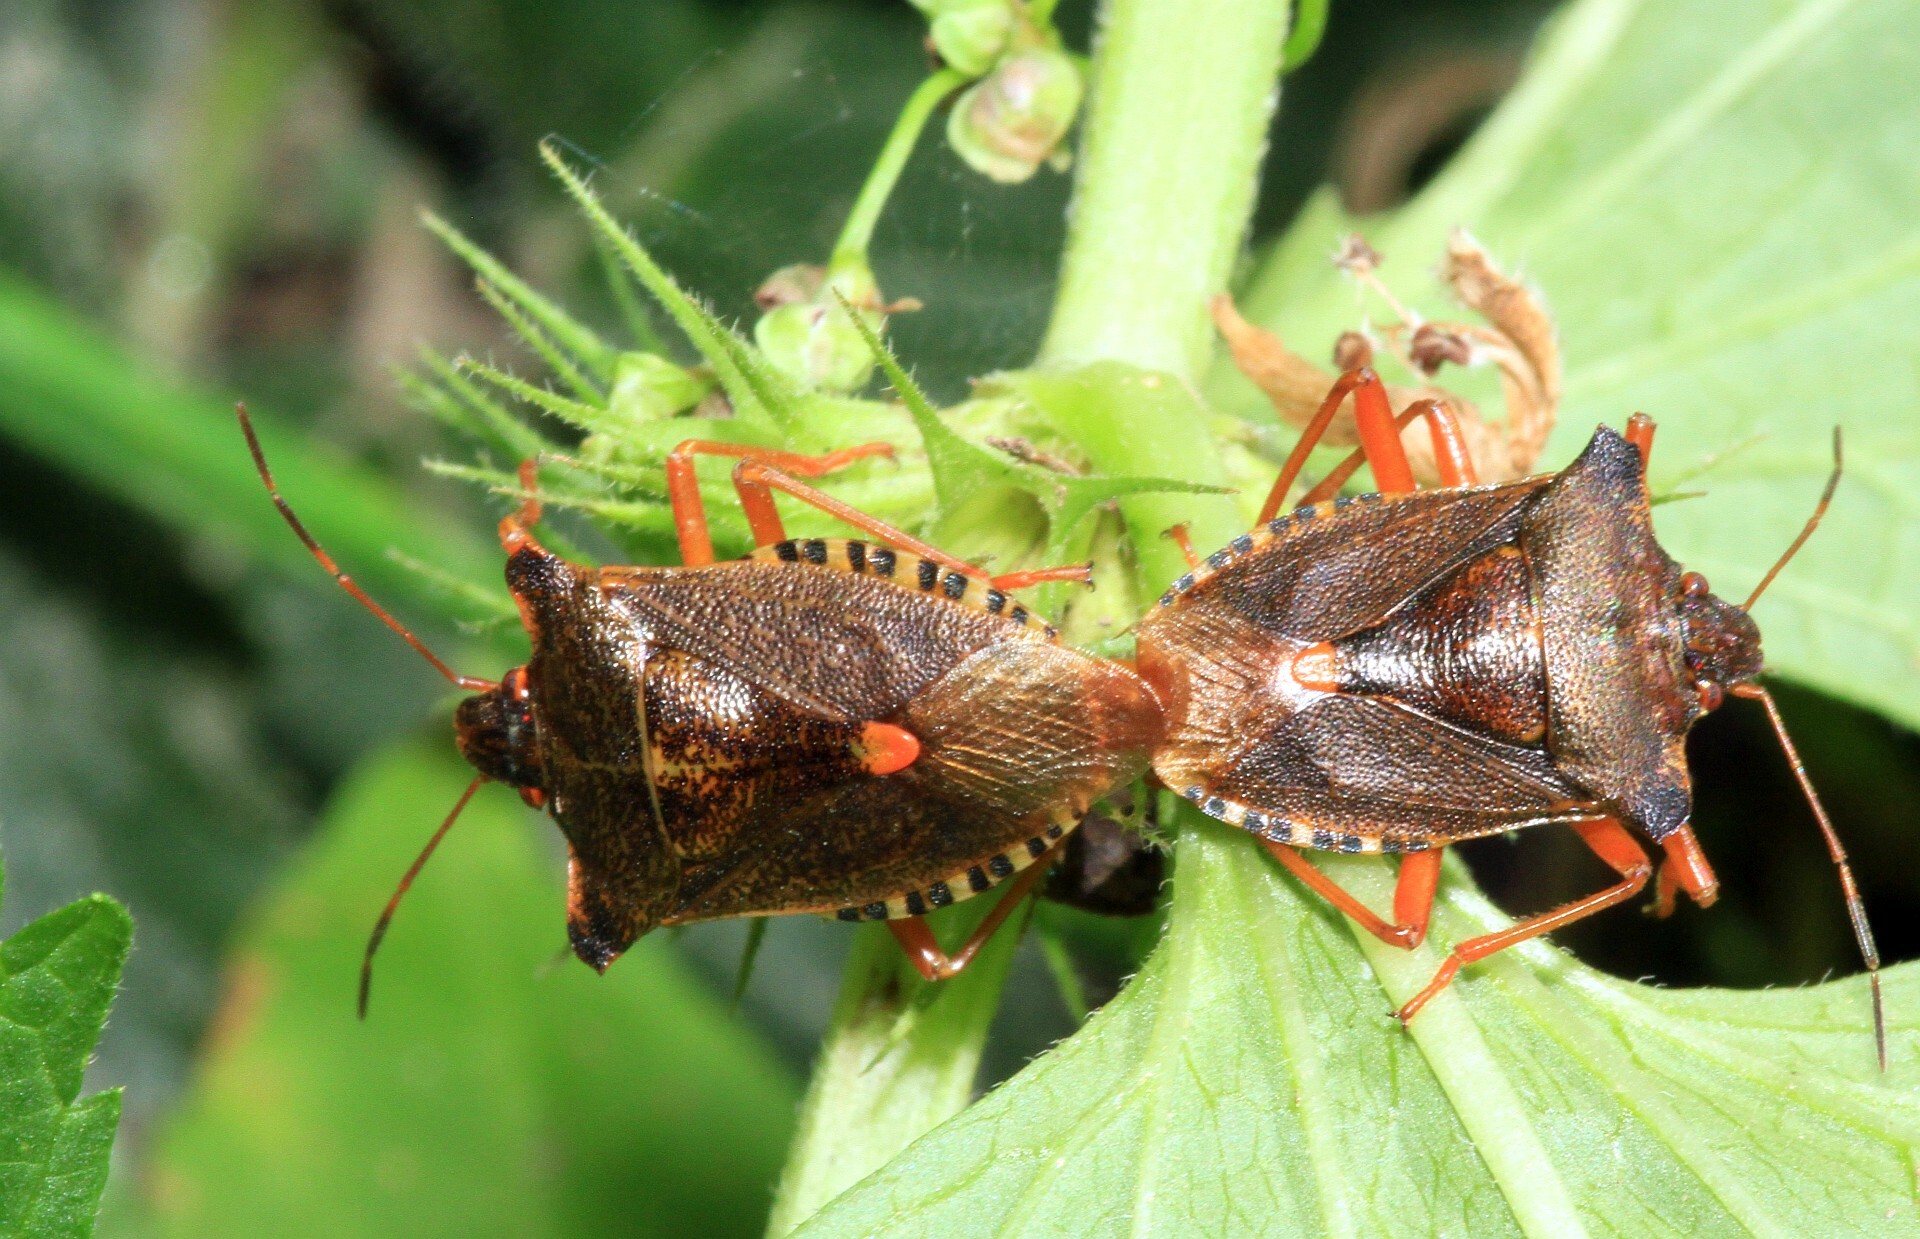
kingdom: Animalia
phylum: Arthropoda
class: Insecta
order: Hemiptera
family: Pentatomidae
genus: Pentatoma
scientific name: Pentatoma rufipes
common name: Forest bug
